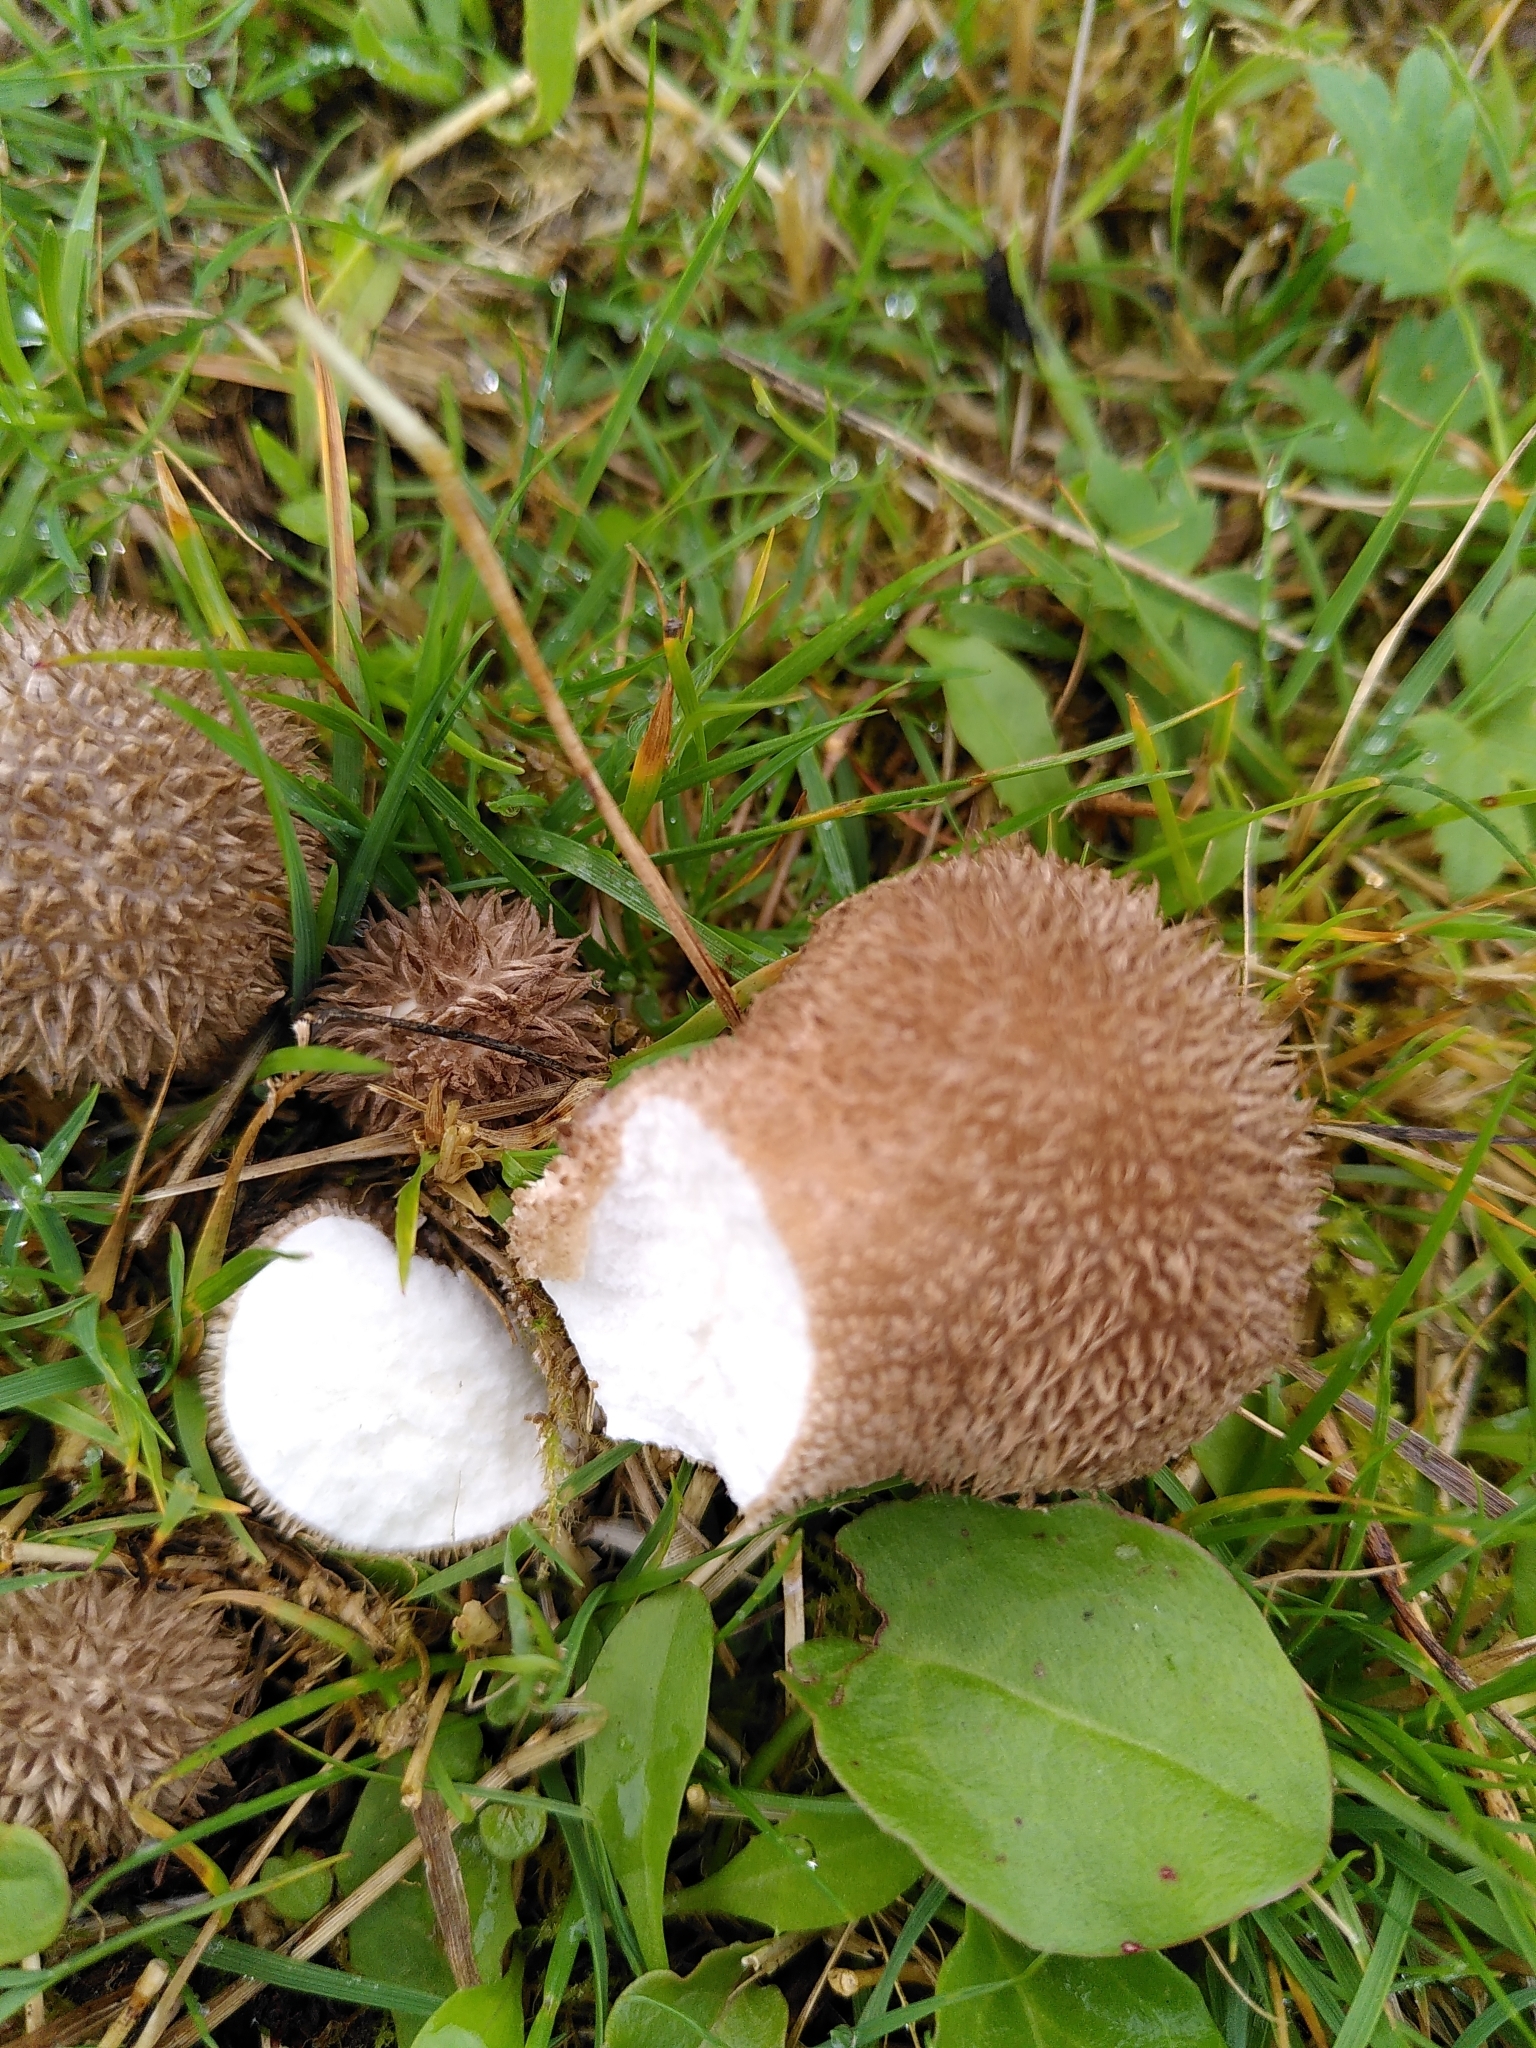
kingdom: Fungi
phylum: Basidiomycota
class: Agaricomycetes
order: Agaricales
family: Lycoperdaceae
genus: Lycoperdon
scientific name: Lycoperdon echinatum
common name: Hedgehog puffball
